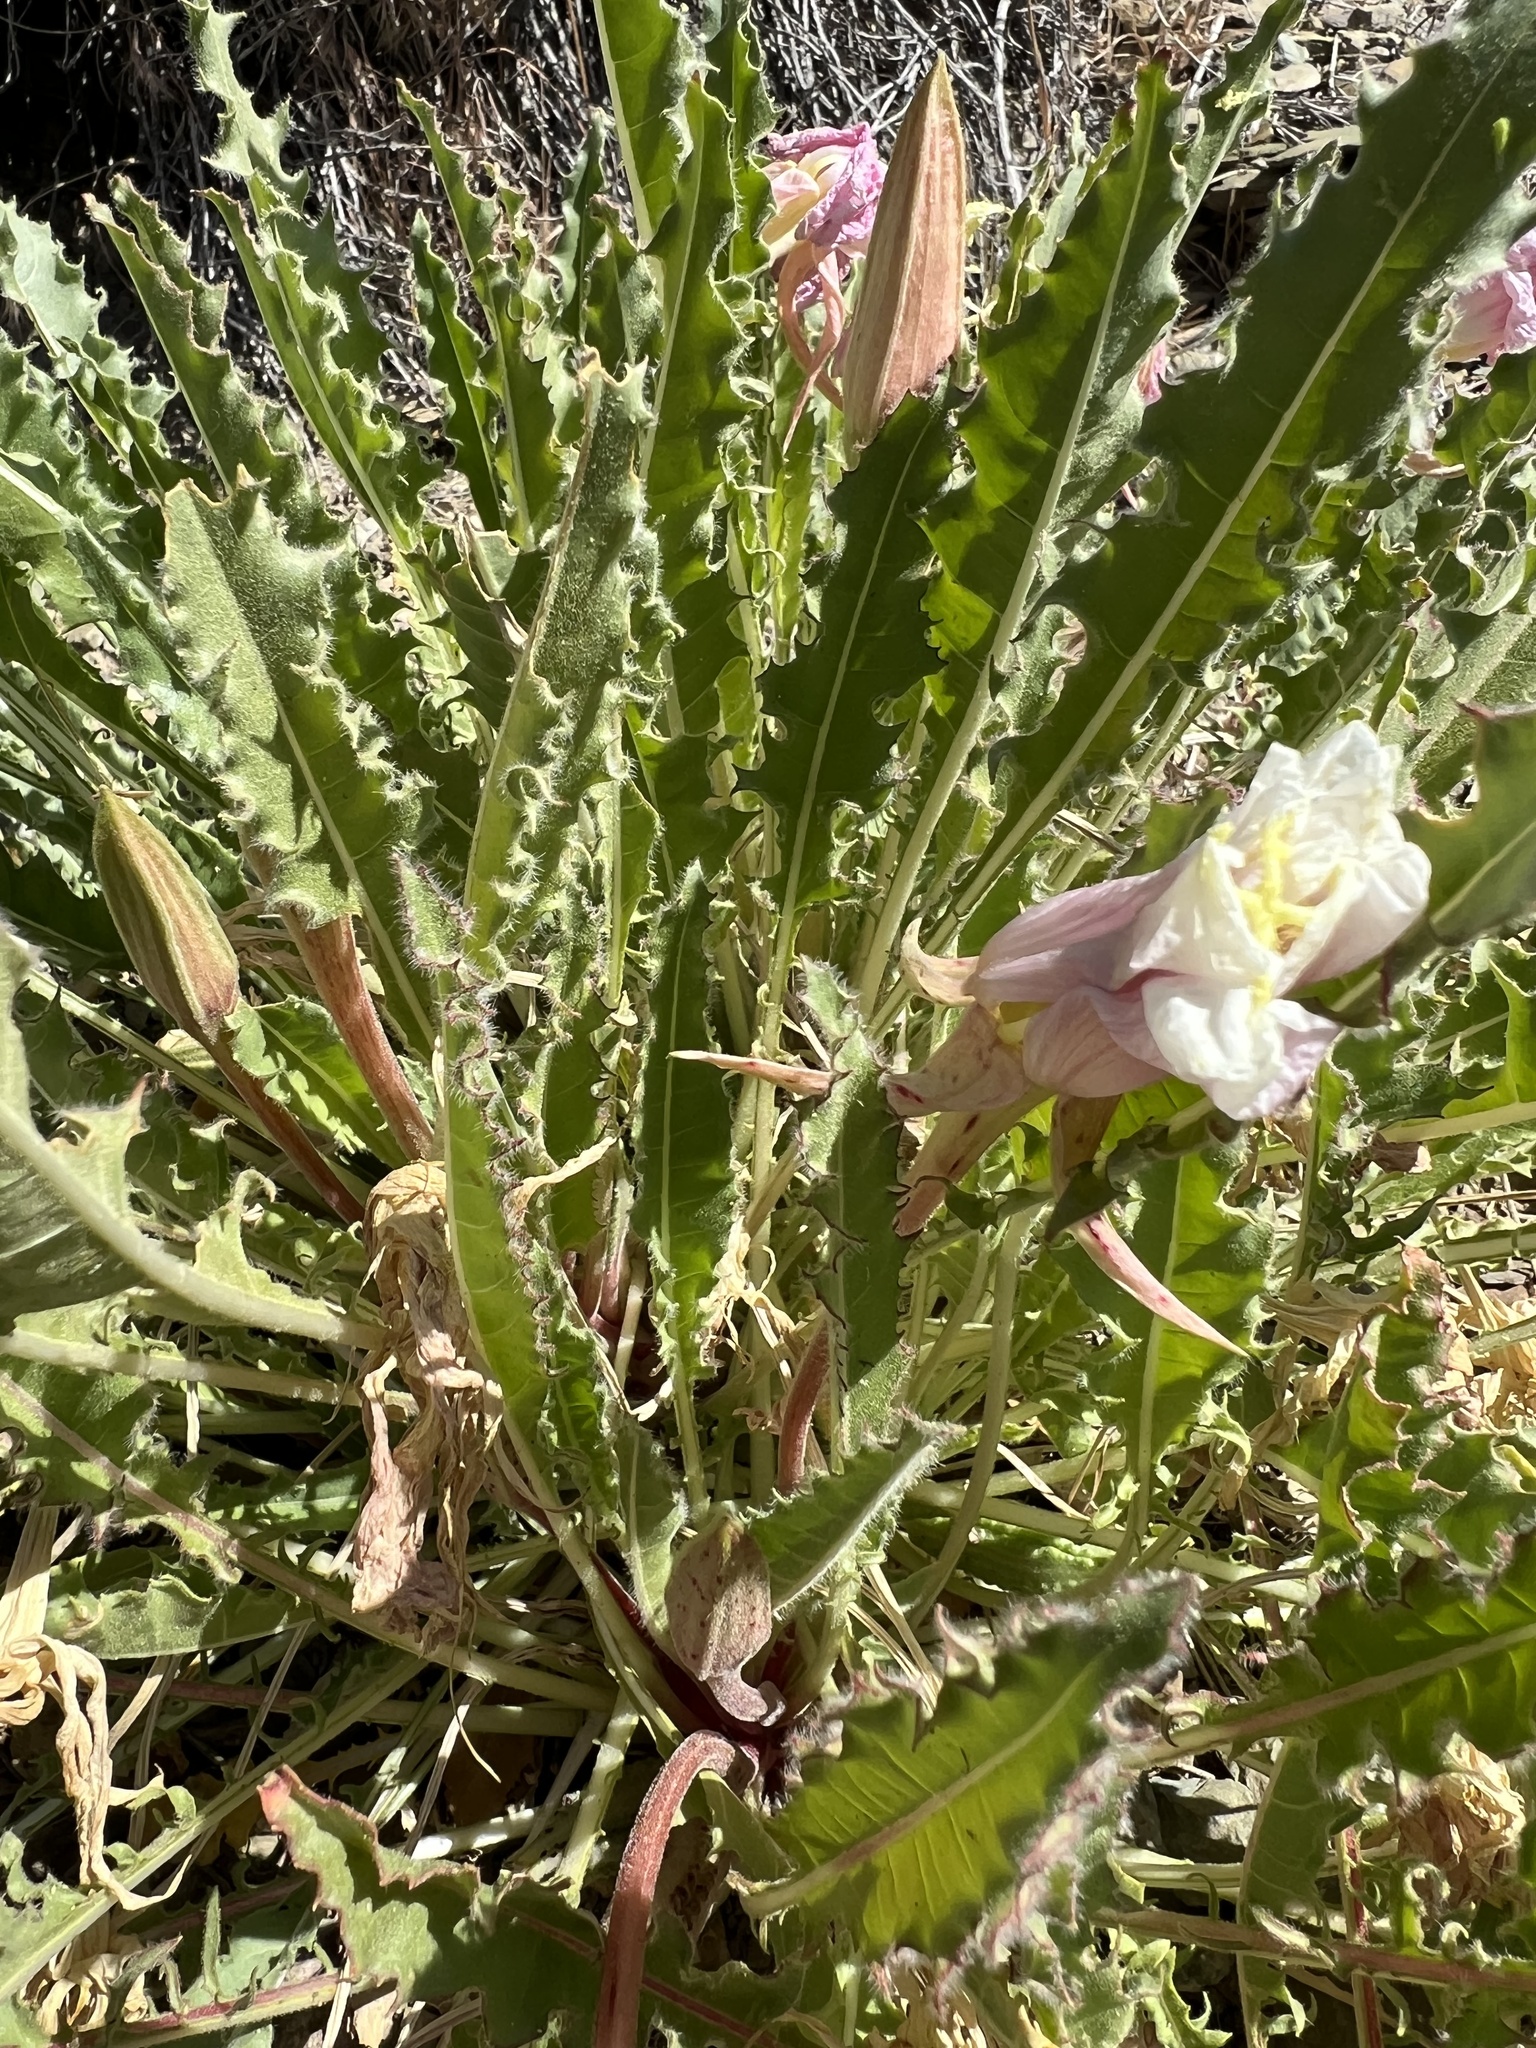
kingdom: Plantae
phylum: Tracheophyta
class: Magnoliopsida
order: Myrtales
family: Onagraceae
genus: Oenothera
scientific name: Oenothera cespitosa
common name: Tufted evening-primrose
